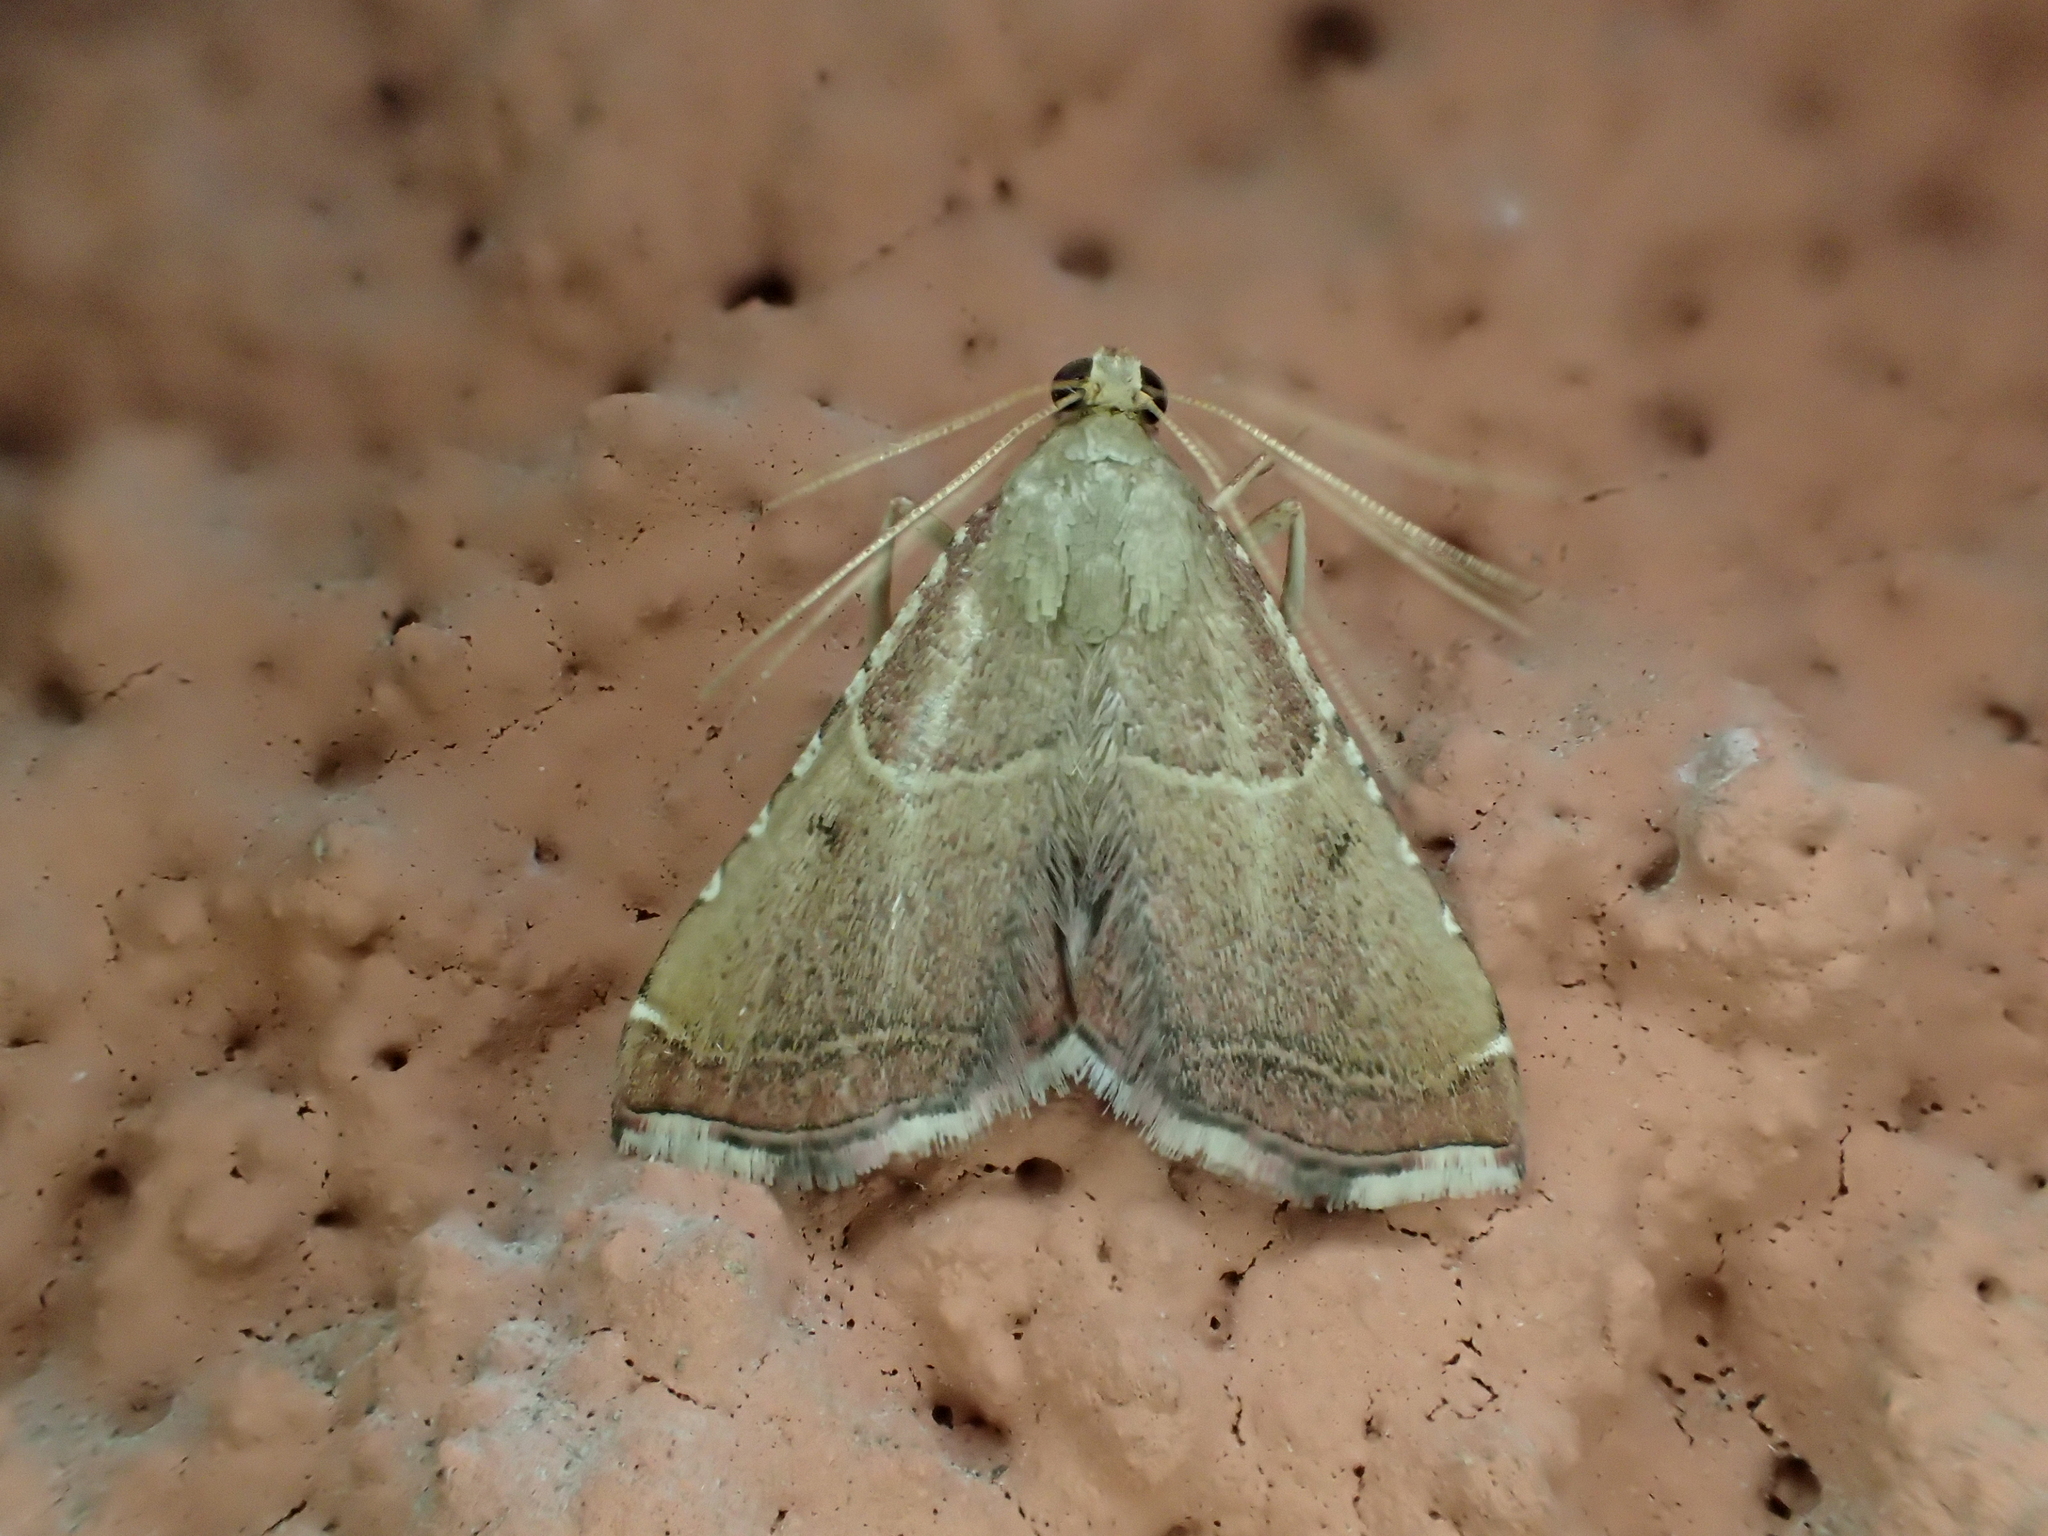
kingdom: Animalia
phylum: Arthropoda
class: Insecta
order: Lepidoptera
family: Pyralidae
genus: Endotricha
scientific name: Endotricha flammealis
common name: Rosy tabby
